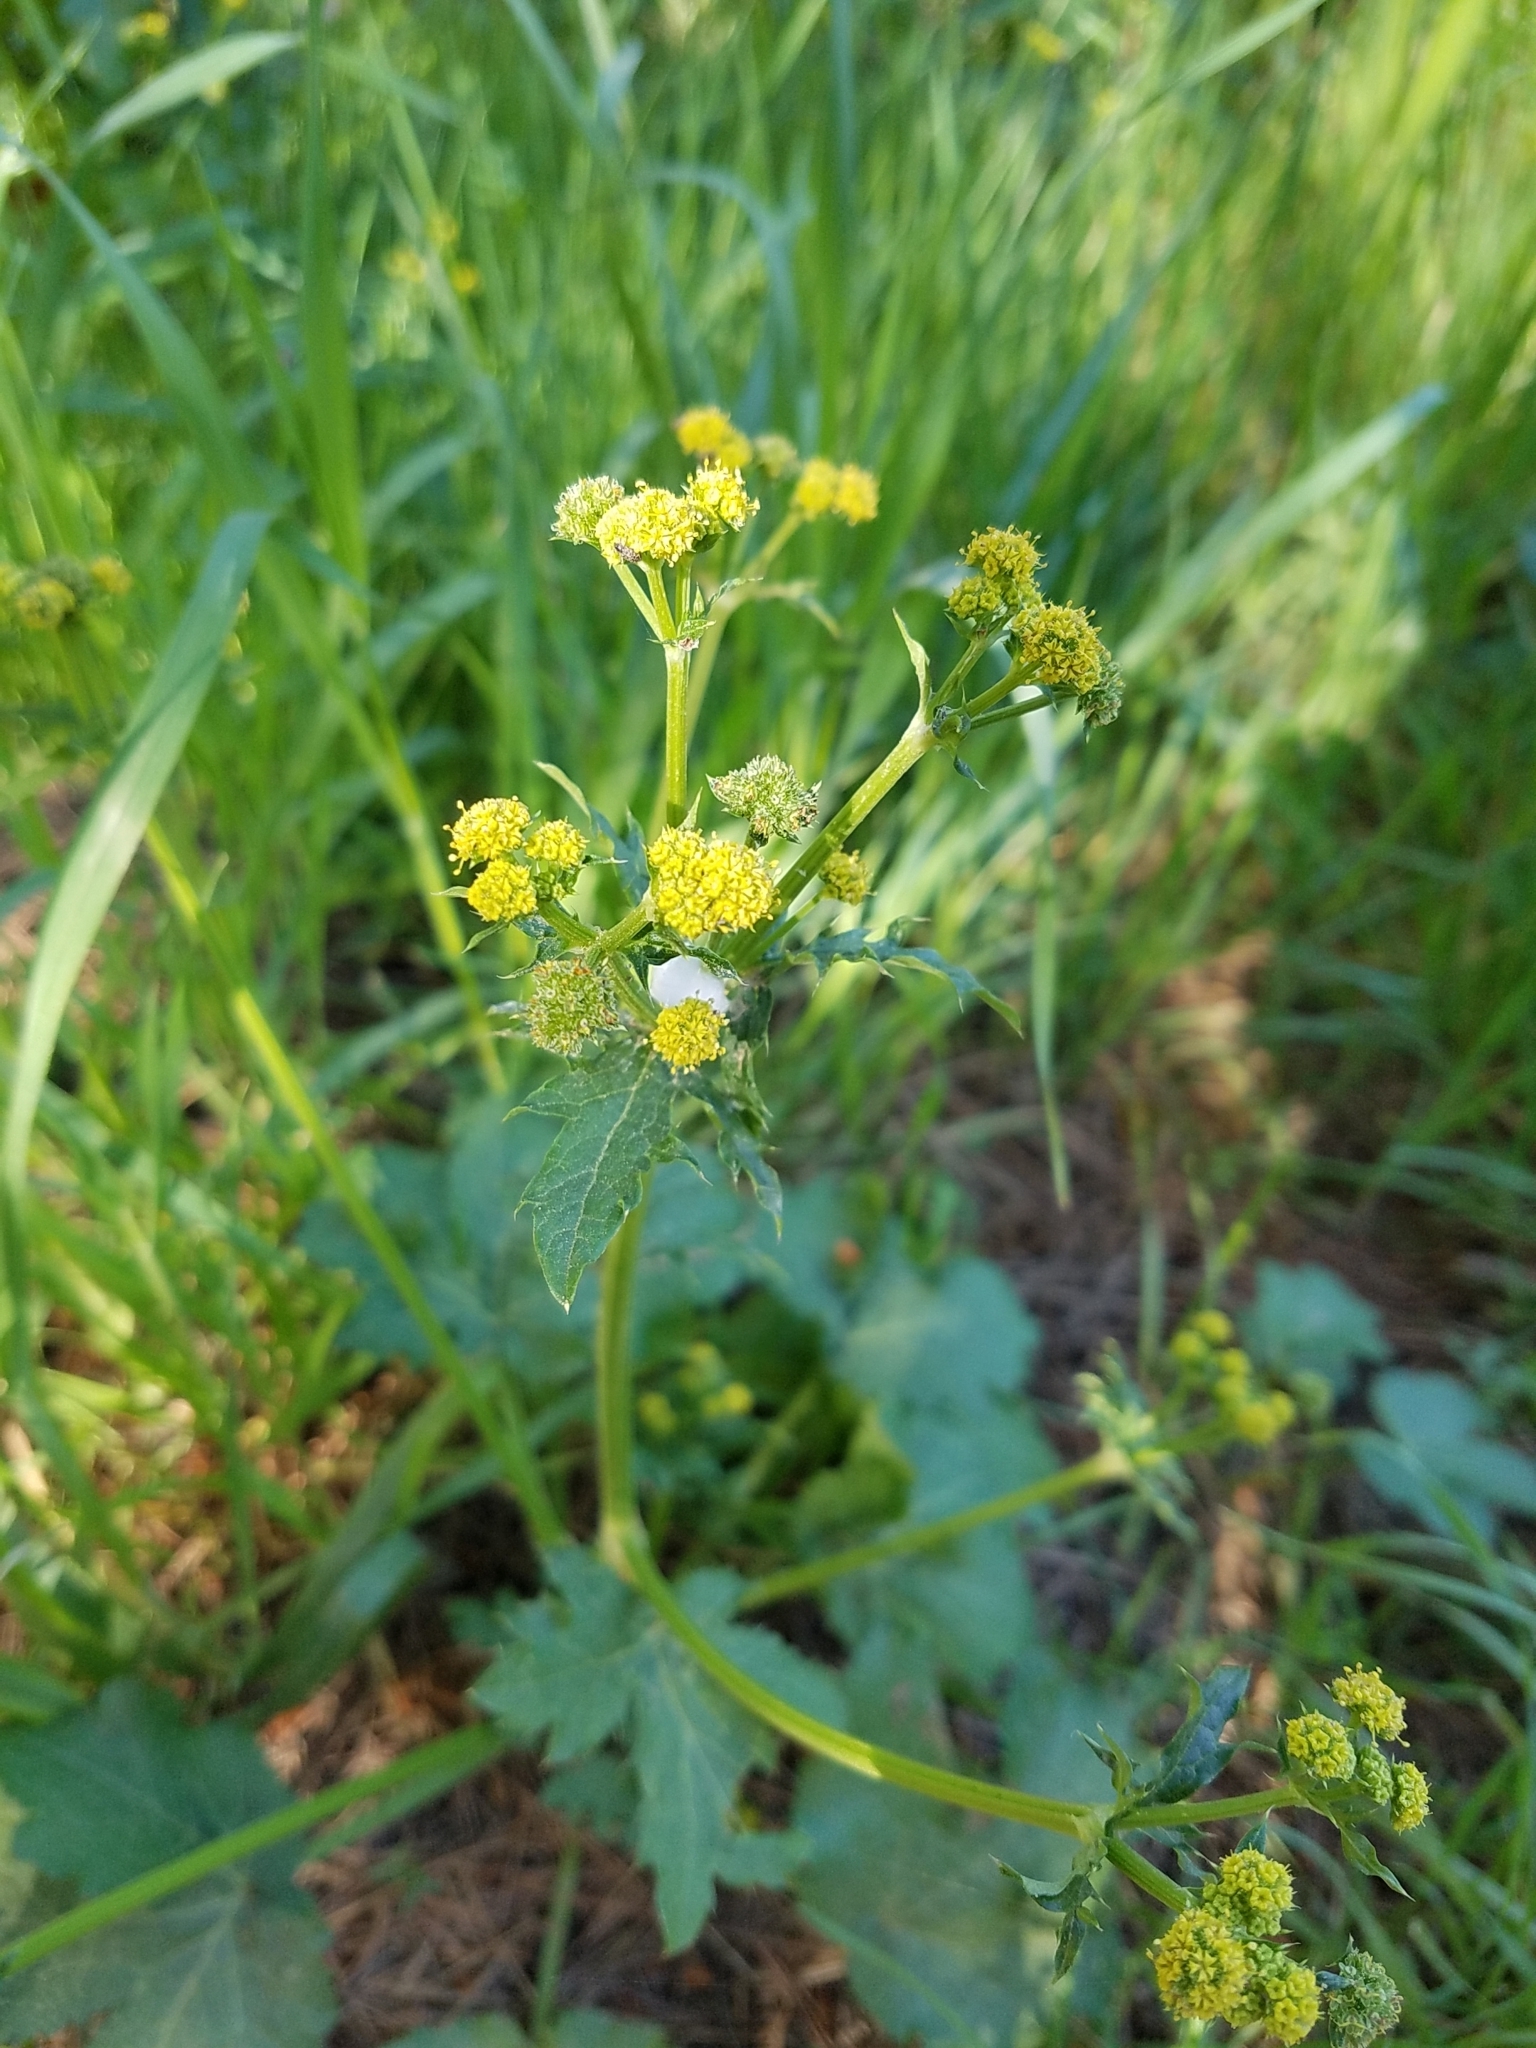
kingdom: Plantae
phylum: Tracheophyta
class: Magnoliopsida
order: Apiales
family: Apiaceae
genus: Sanicula
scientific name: Sanicula crassicaulis
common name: Western snakeroot
